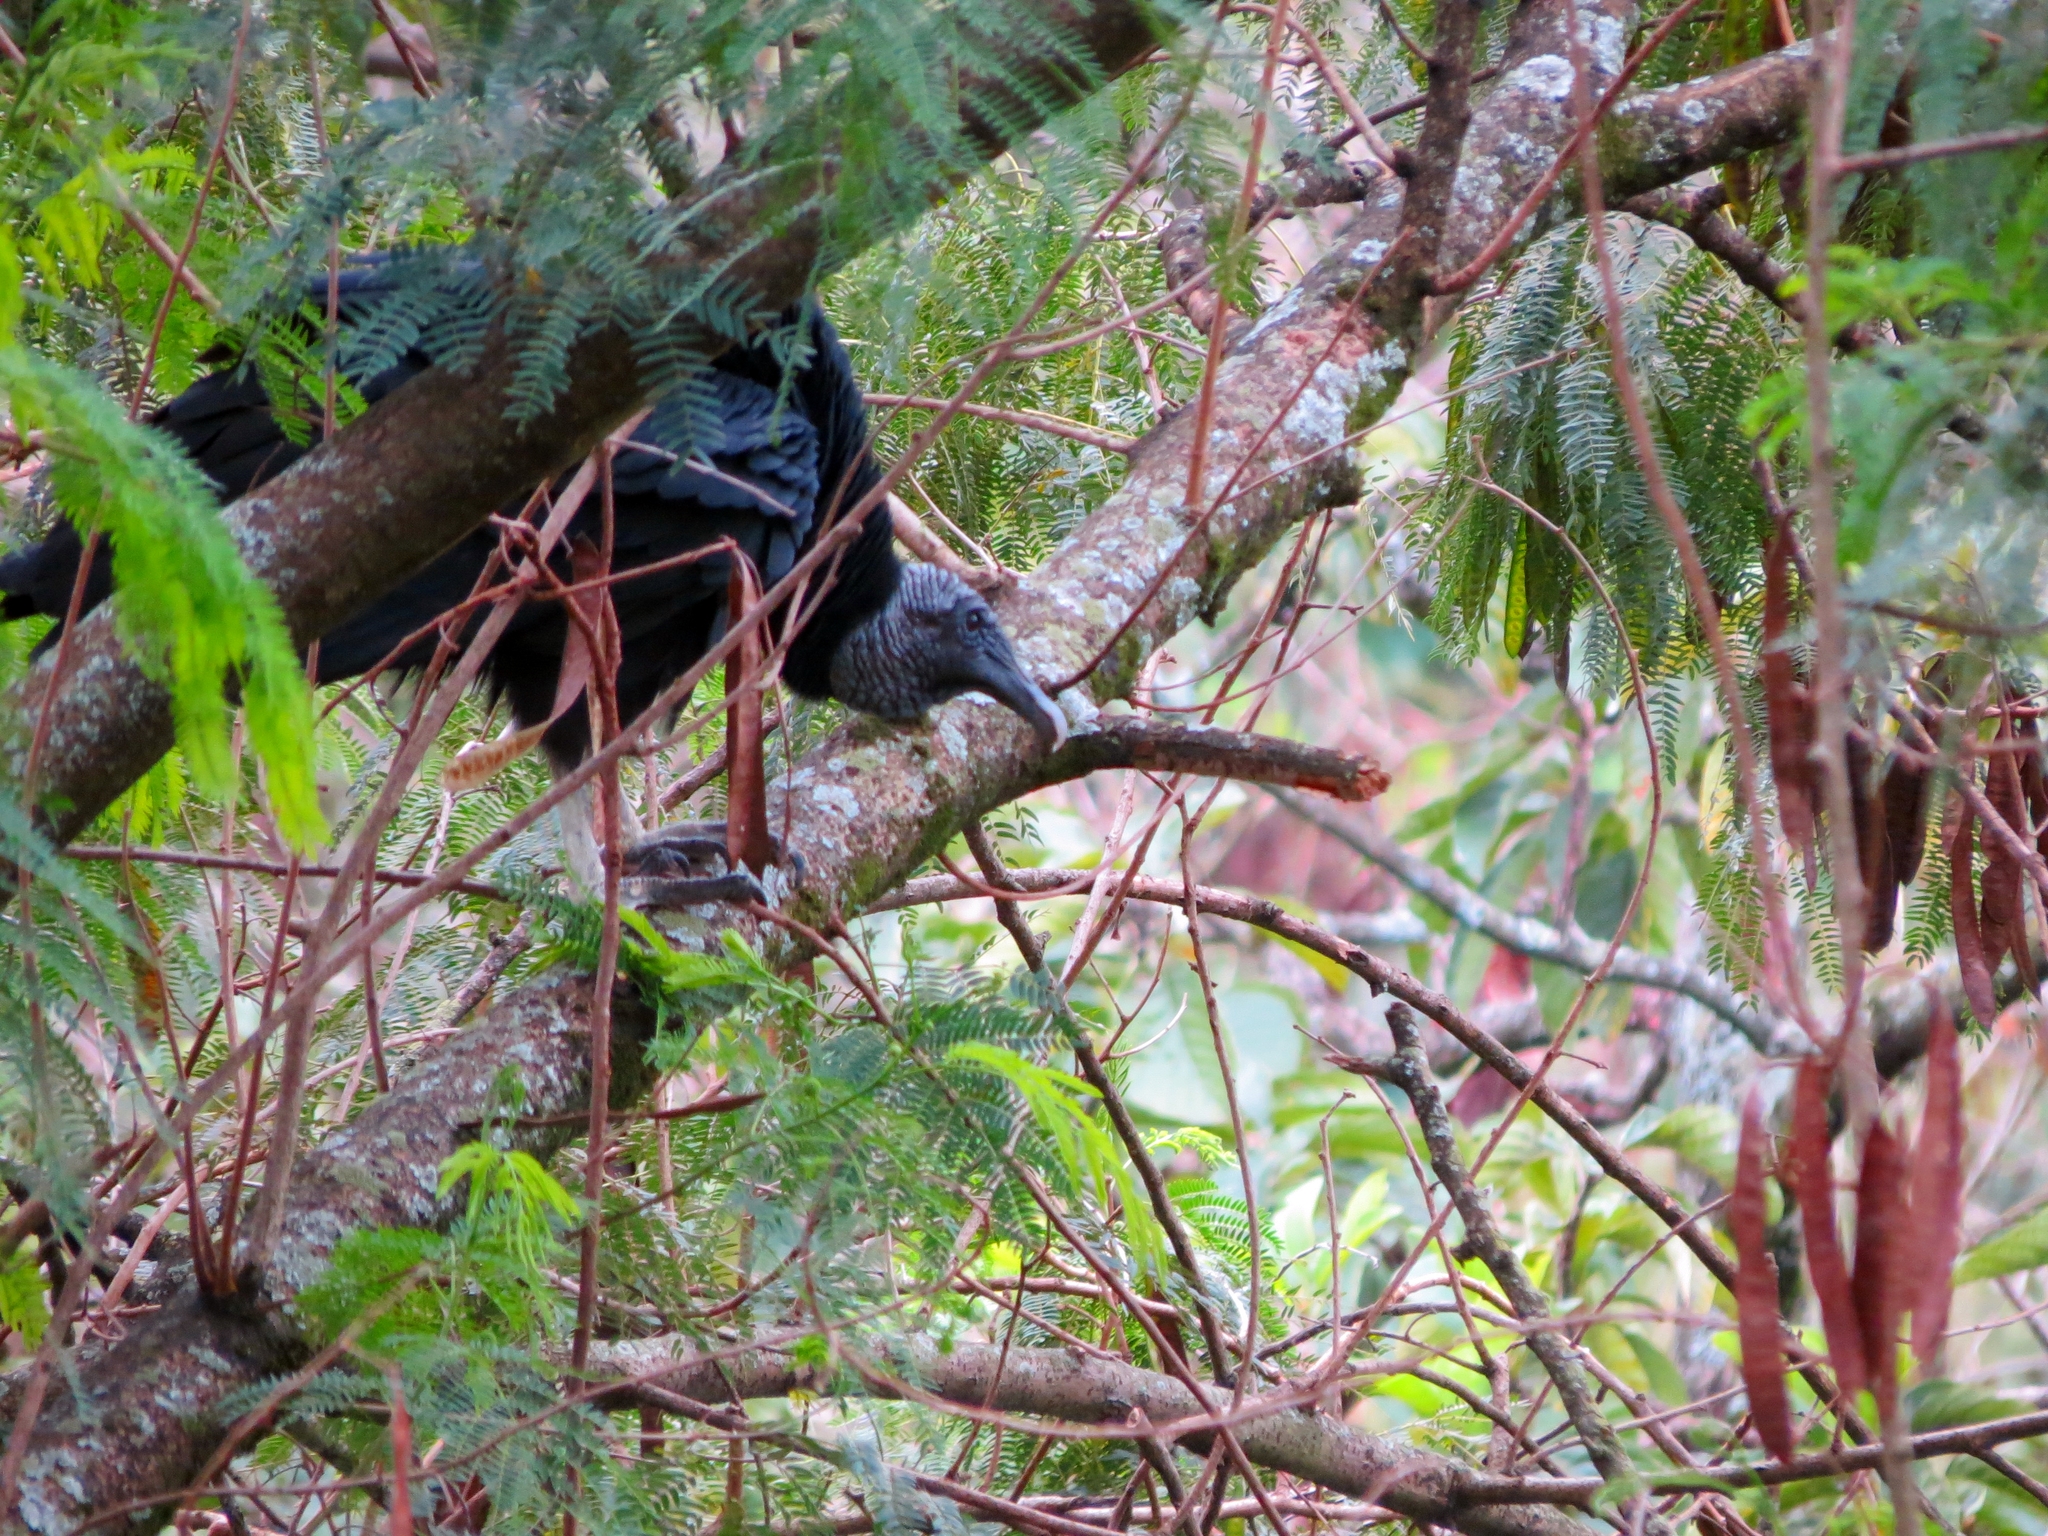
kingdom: Animalia
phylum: Chordata
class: Aves
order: Accipitriformes
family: Cathartidae
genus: Coragyps
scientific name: Coragyps atratus
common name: Black vulture
